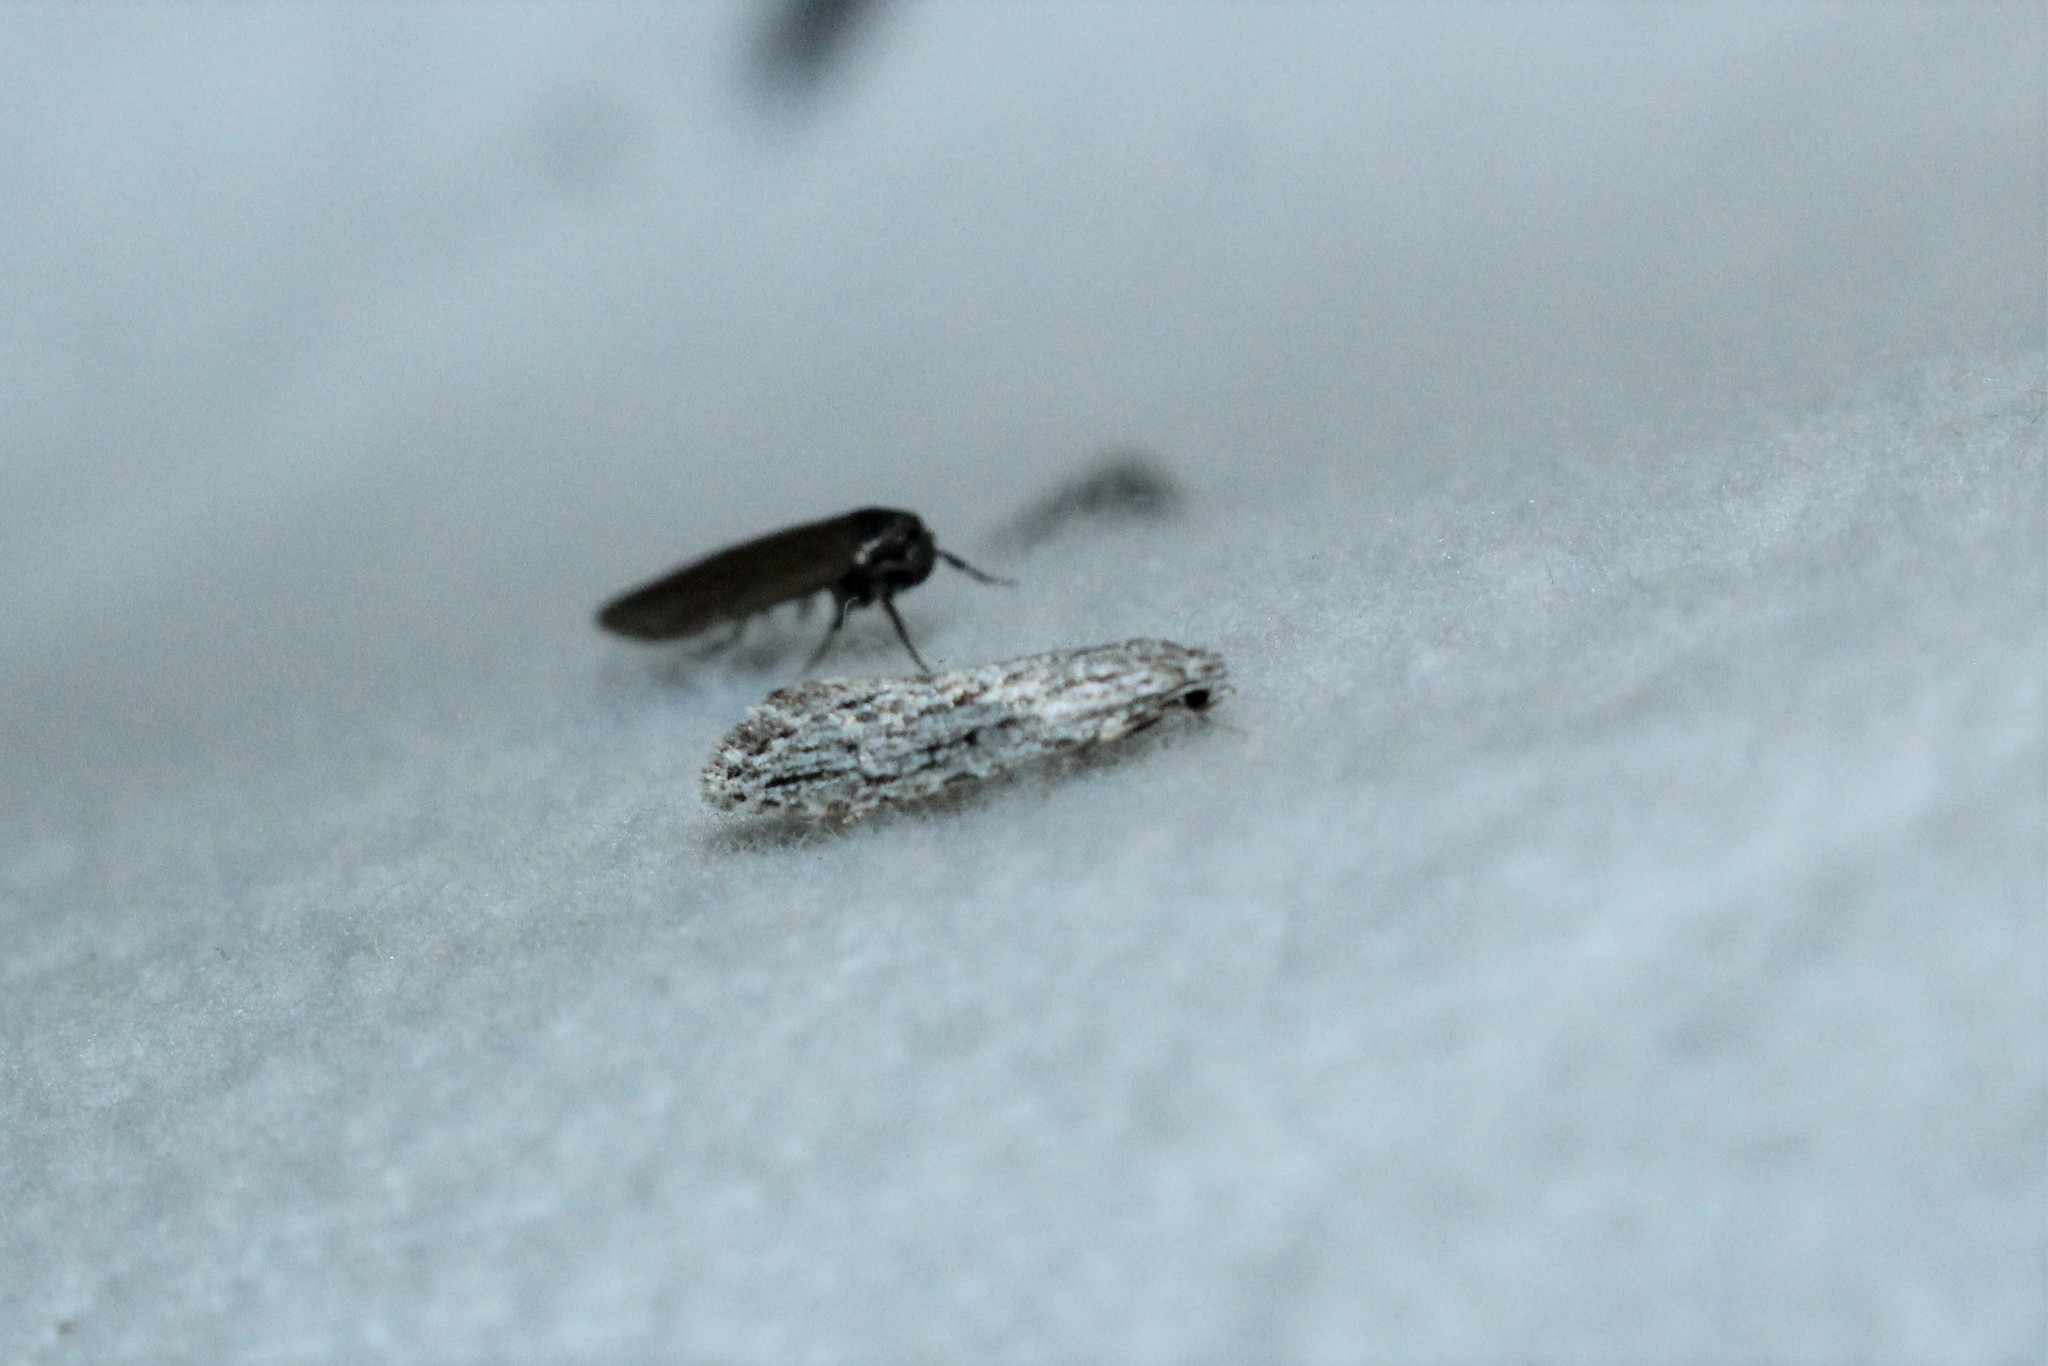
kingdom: Animalia
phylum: Arthropoda
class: Insecta
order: Lepidoptera
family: Tineidae
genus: Nemapogon
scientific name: Nemapogon multistriatella
